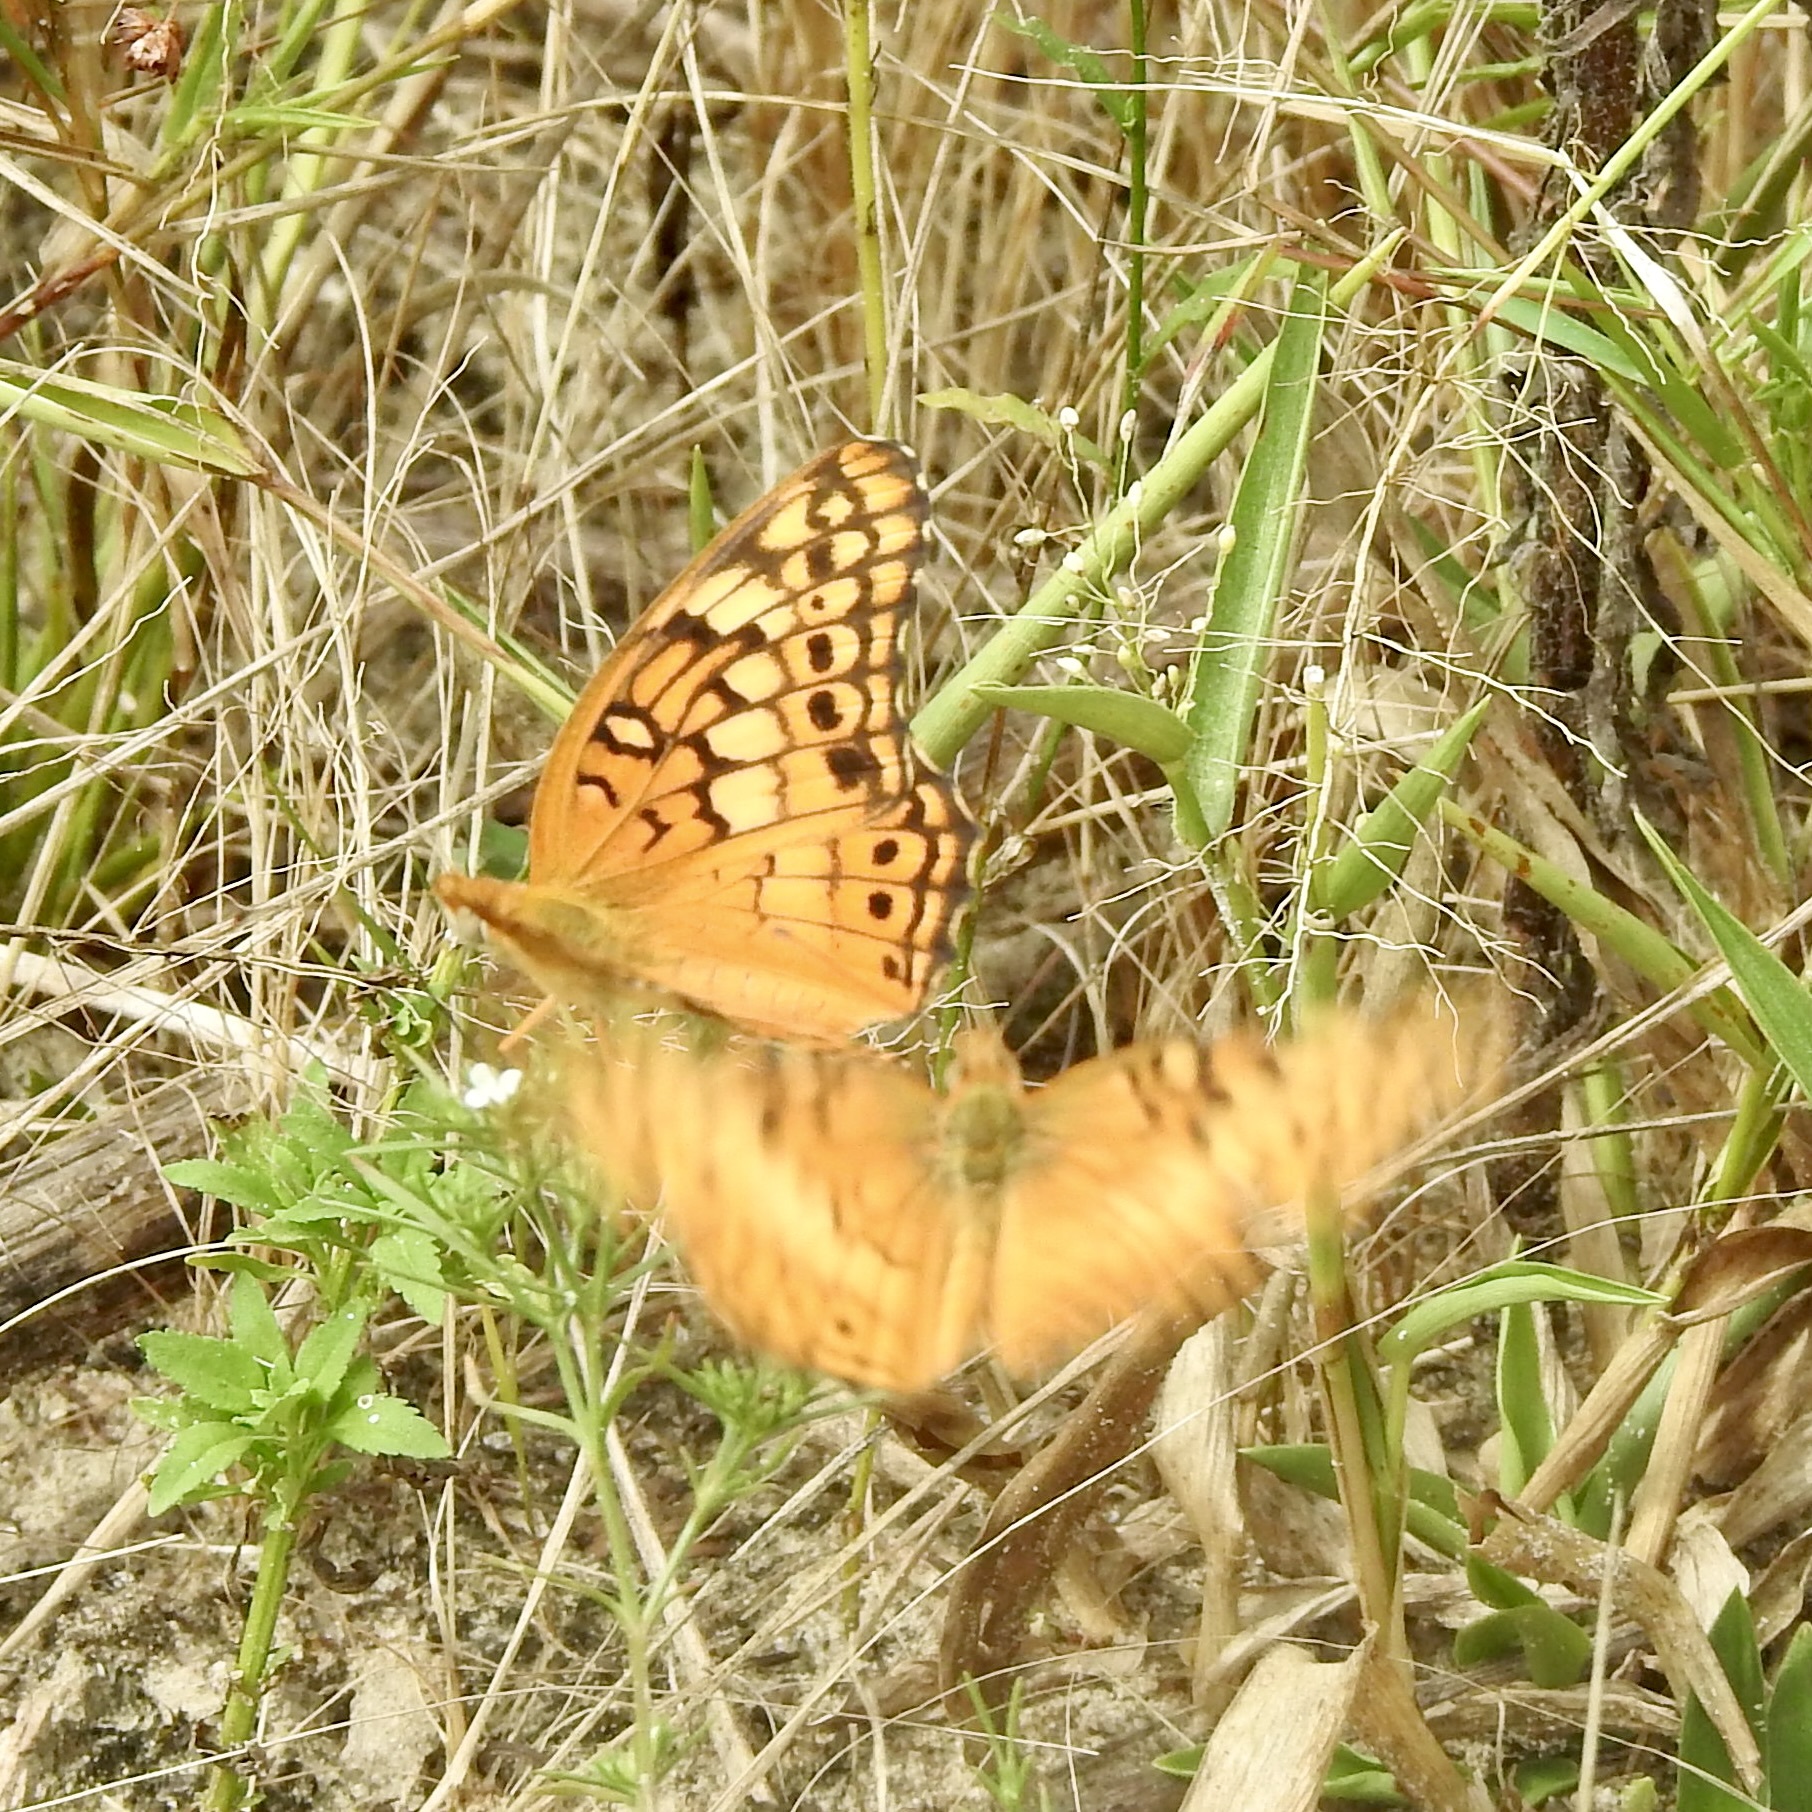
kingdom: Animalia
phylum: Arthropoda
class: Insecta
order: Lepidoptera
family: Nymphalidae
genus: Euptoieta
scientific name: Euptoieta claudia
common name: Variegated fritillary
